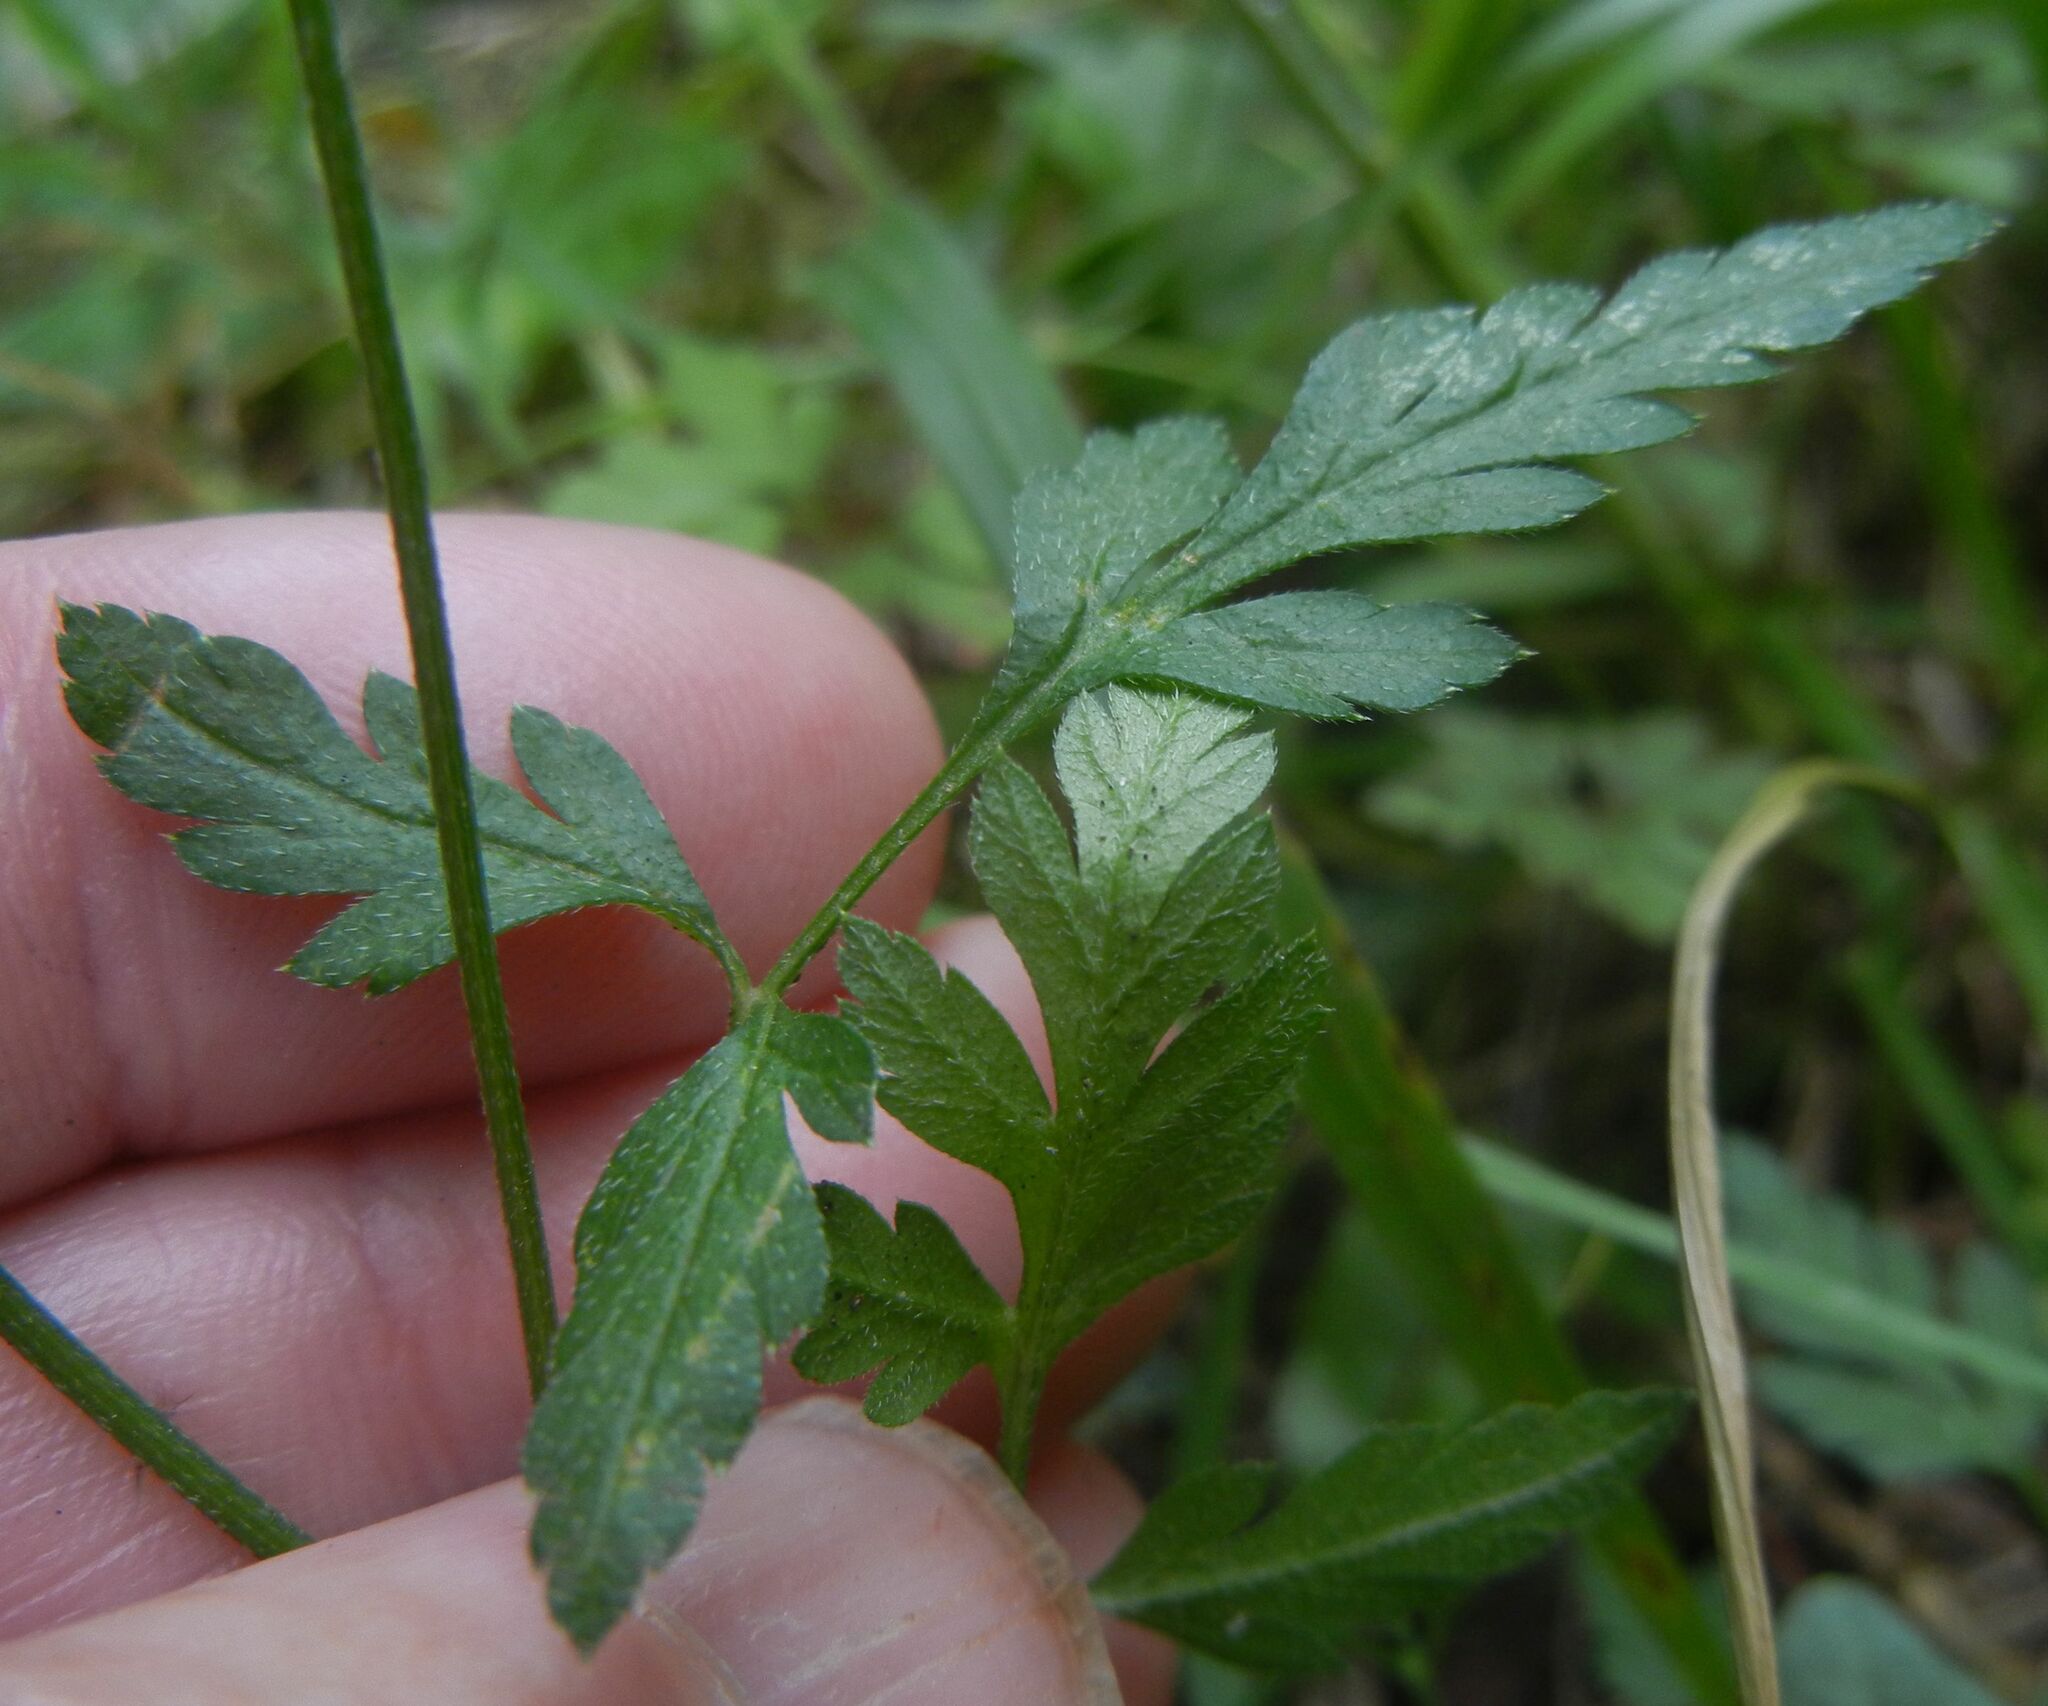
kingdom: Plantae
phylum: Tracheophyta
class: Magnoliopsida
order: Apiales
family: Apiaceae
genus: Torilis
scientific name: Torilis japonica
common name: Upright hedge-parsley
